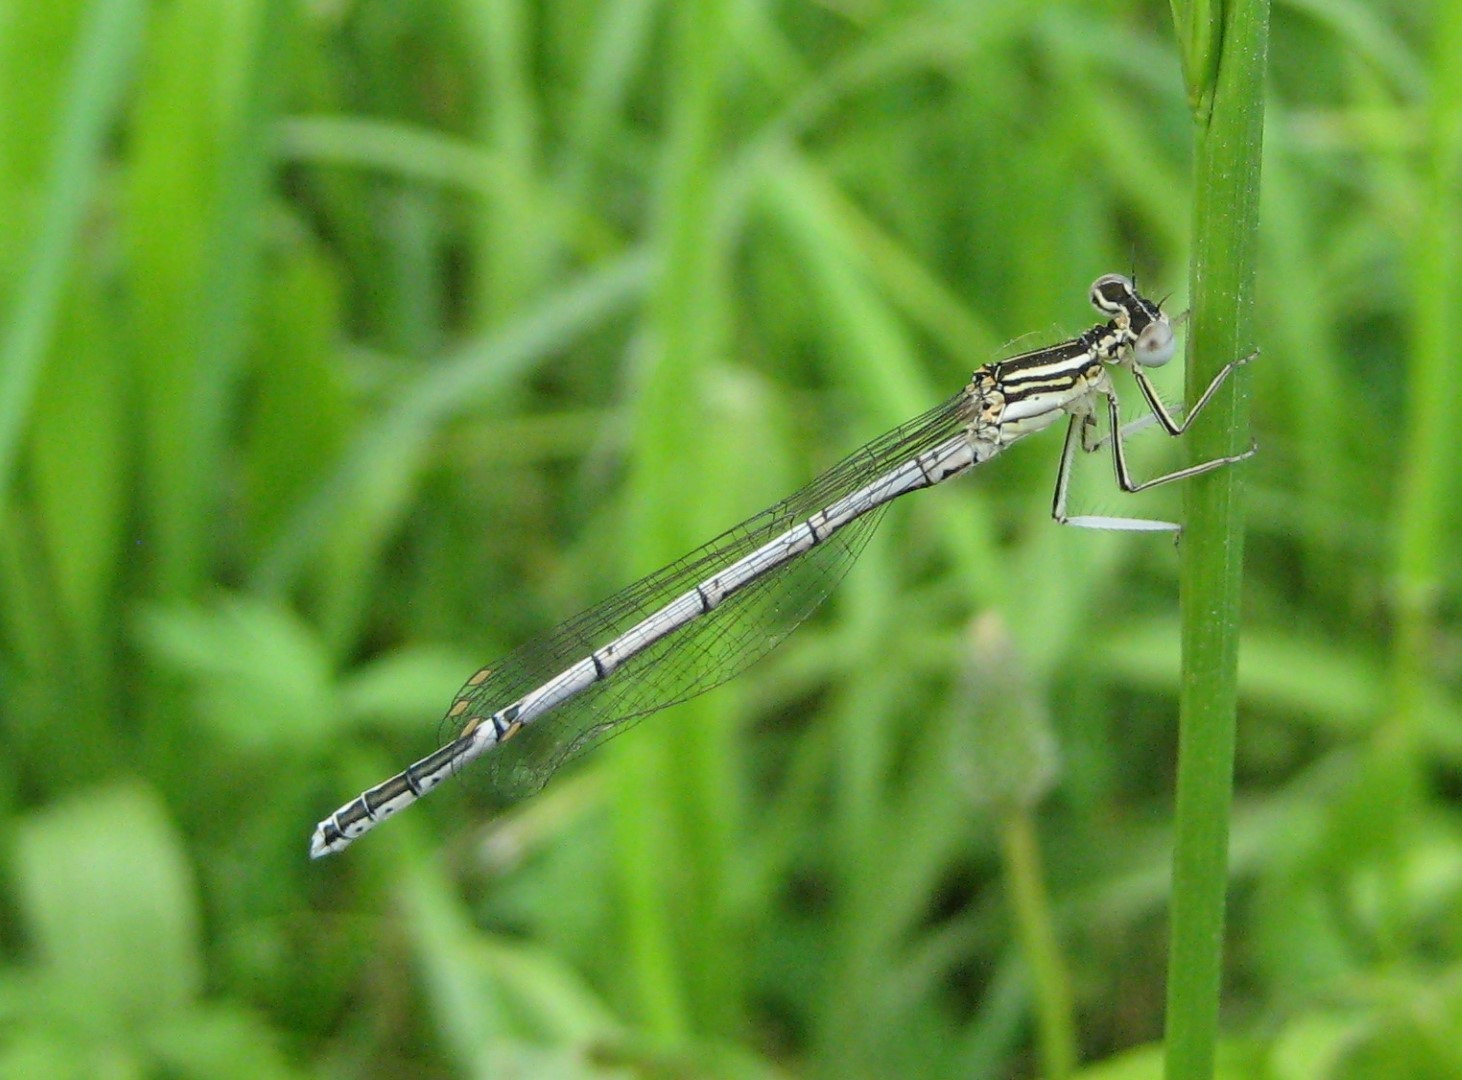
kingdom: Animalia
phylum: Arthropoda
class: Insecta
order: Odonata
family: Platycnemididae
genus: Platycnemis
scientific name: Platycnemis pennipes
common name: White-legged damselfly
